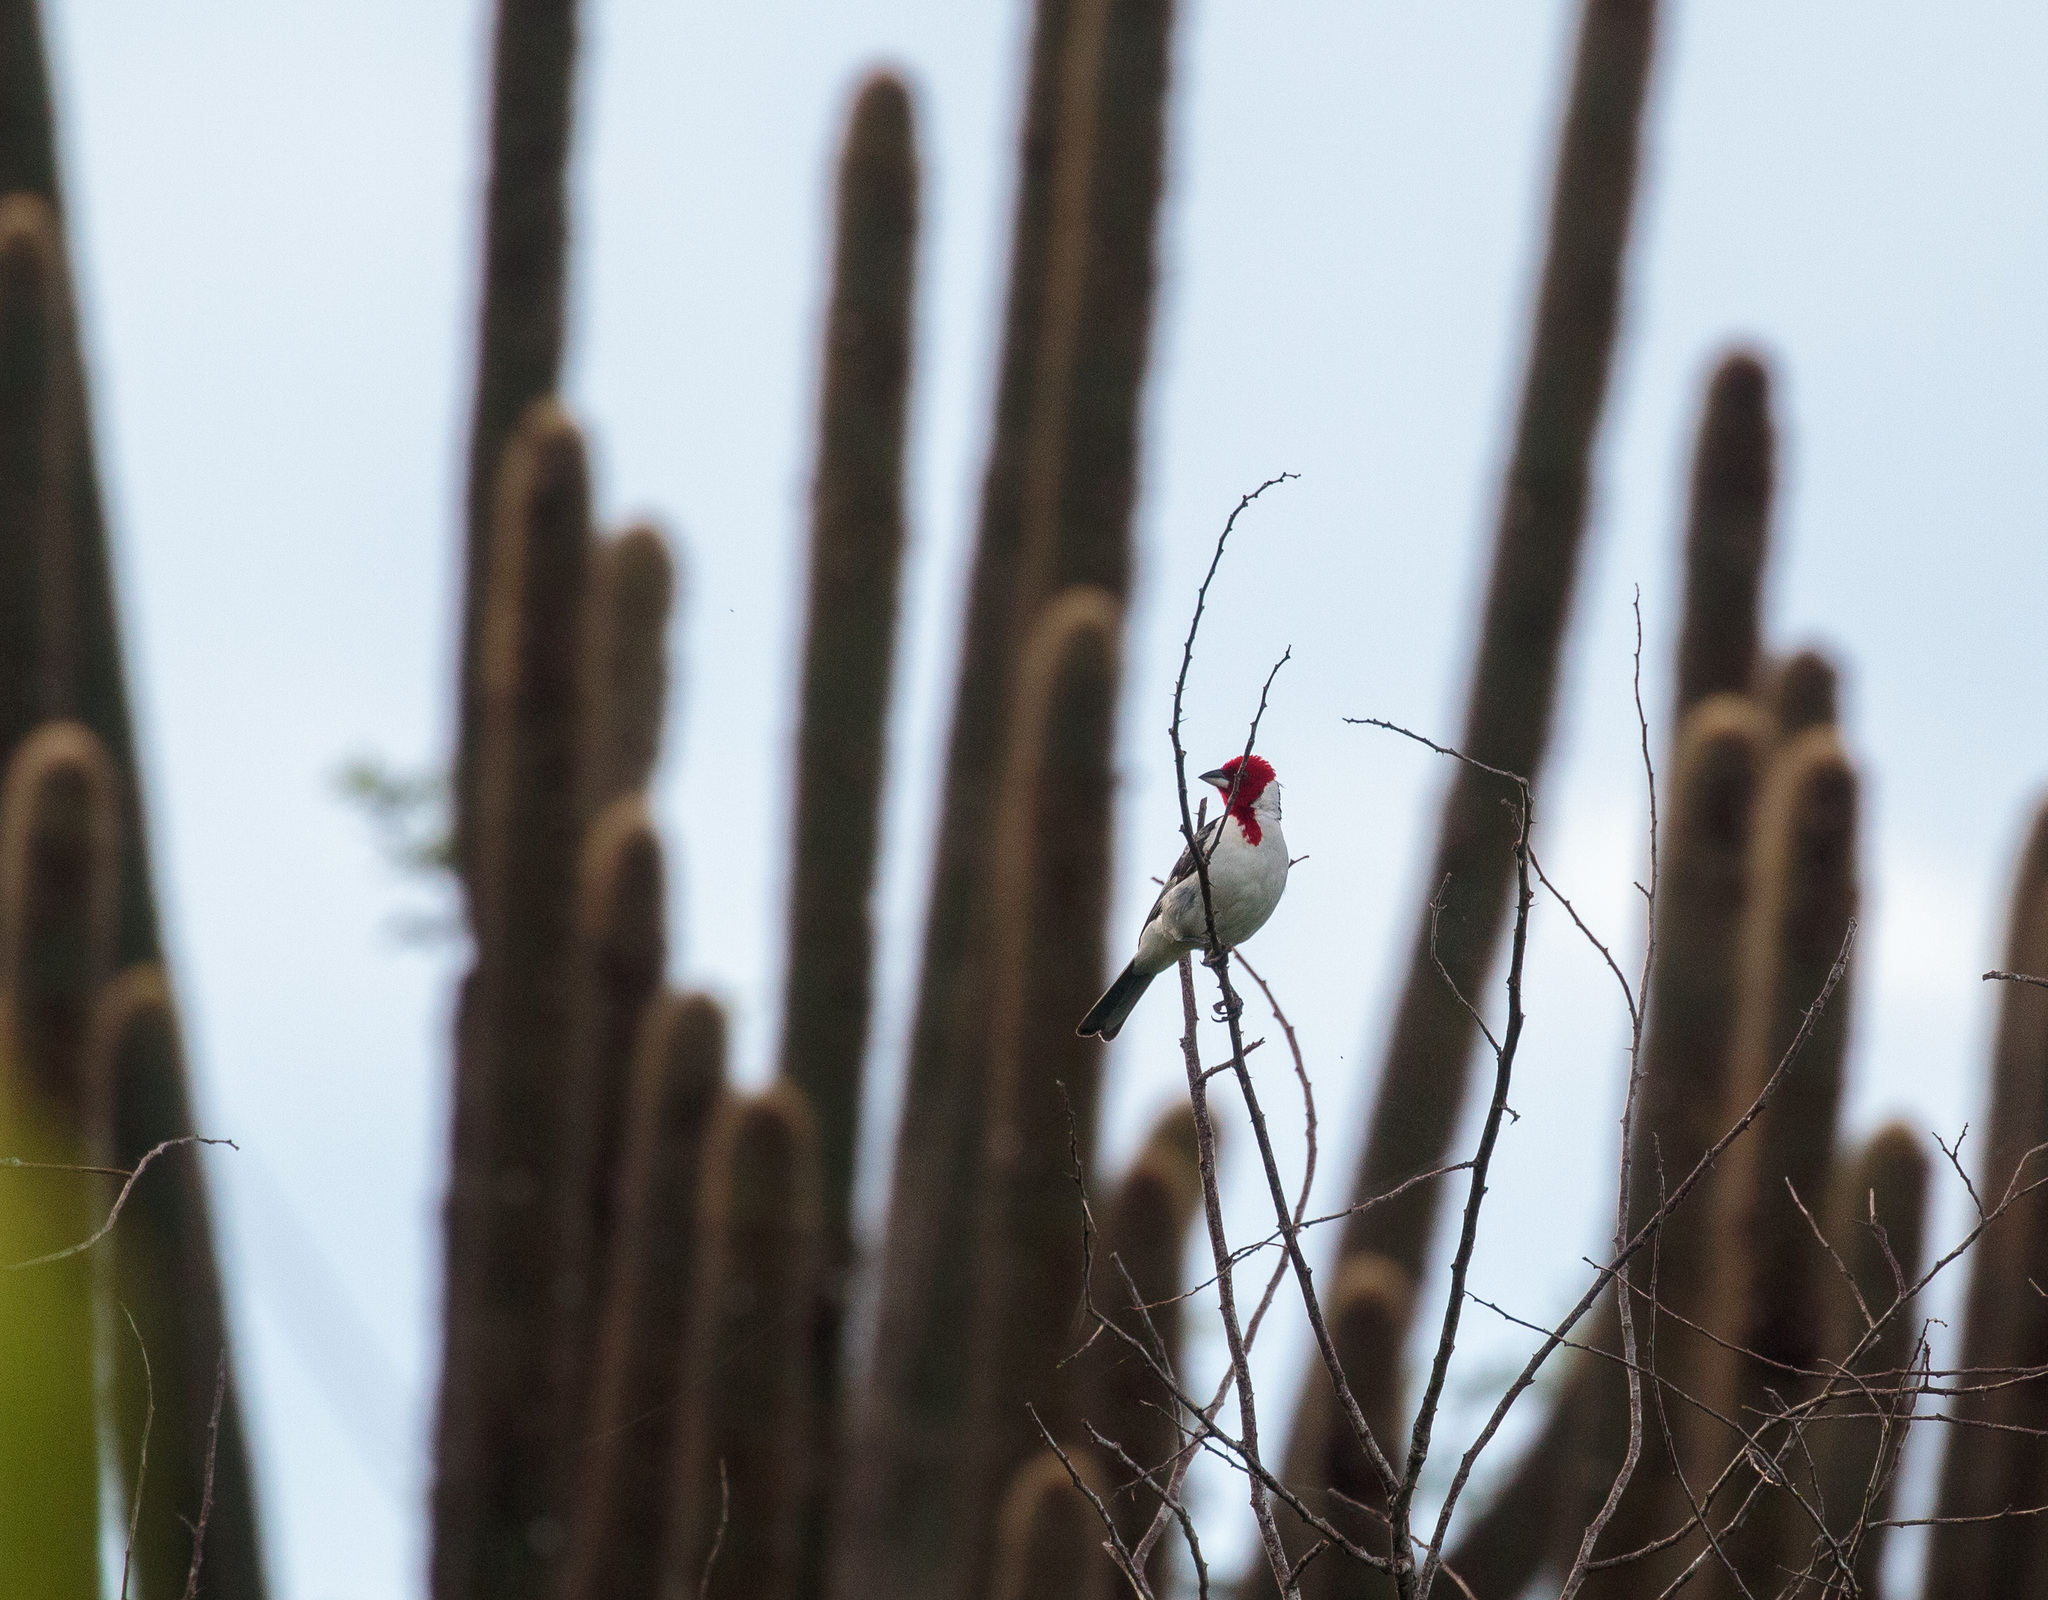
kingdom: Animalia
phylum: Chordata
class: Aves
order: Passeriformes
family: Thraupidae
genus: Paroaria
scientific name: Paroaria dominicana
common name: Red-cowled cardinal
